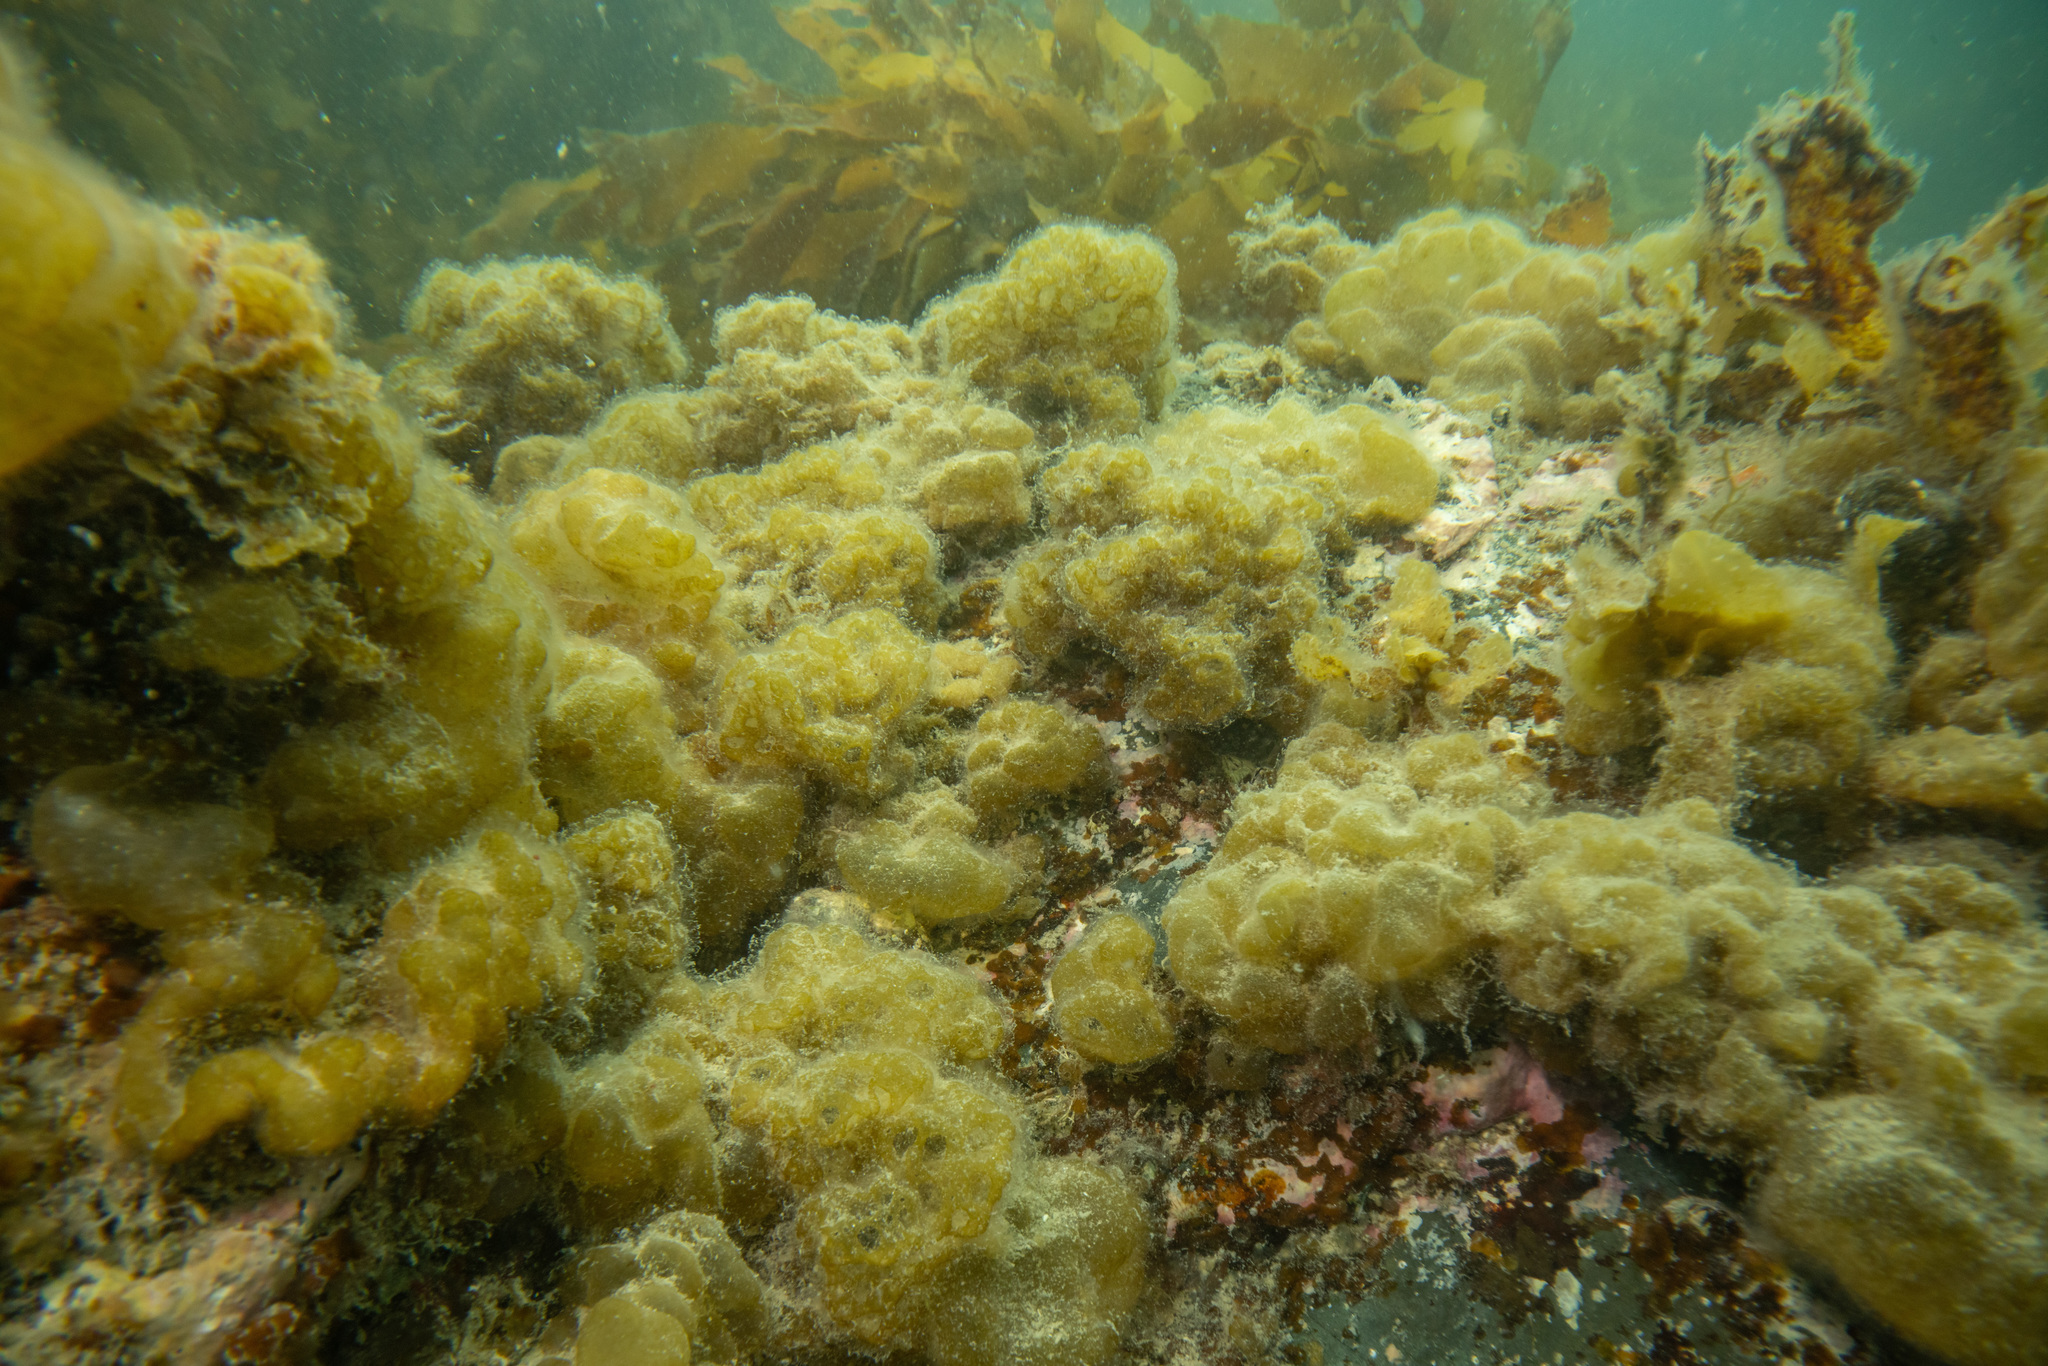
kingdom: Chromista
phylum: Ochrophyta
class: Phaeophyceae
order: Ectocarpales
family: Chordariaceae
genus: Leathesia
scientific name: Leathesia marina
